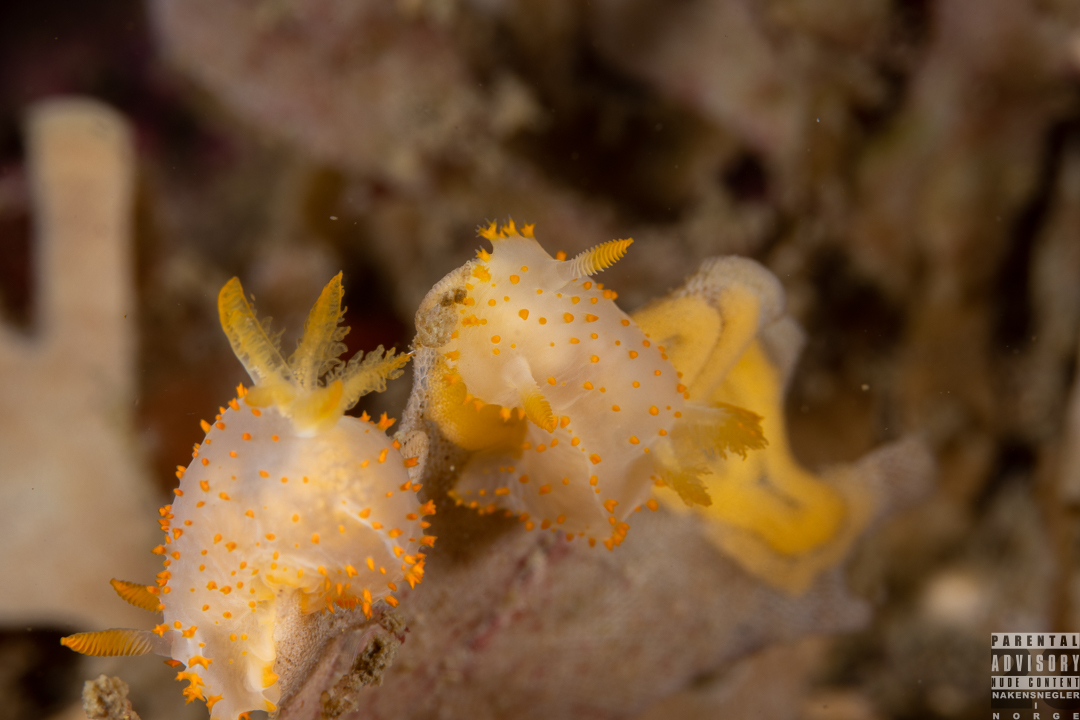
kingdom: Animalia
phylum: Mollusca
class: Gastropoda
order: Nudibranchia
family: Polyceridae
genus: Crimora
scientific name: Crimora papillata
